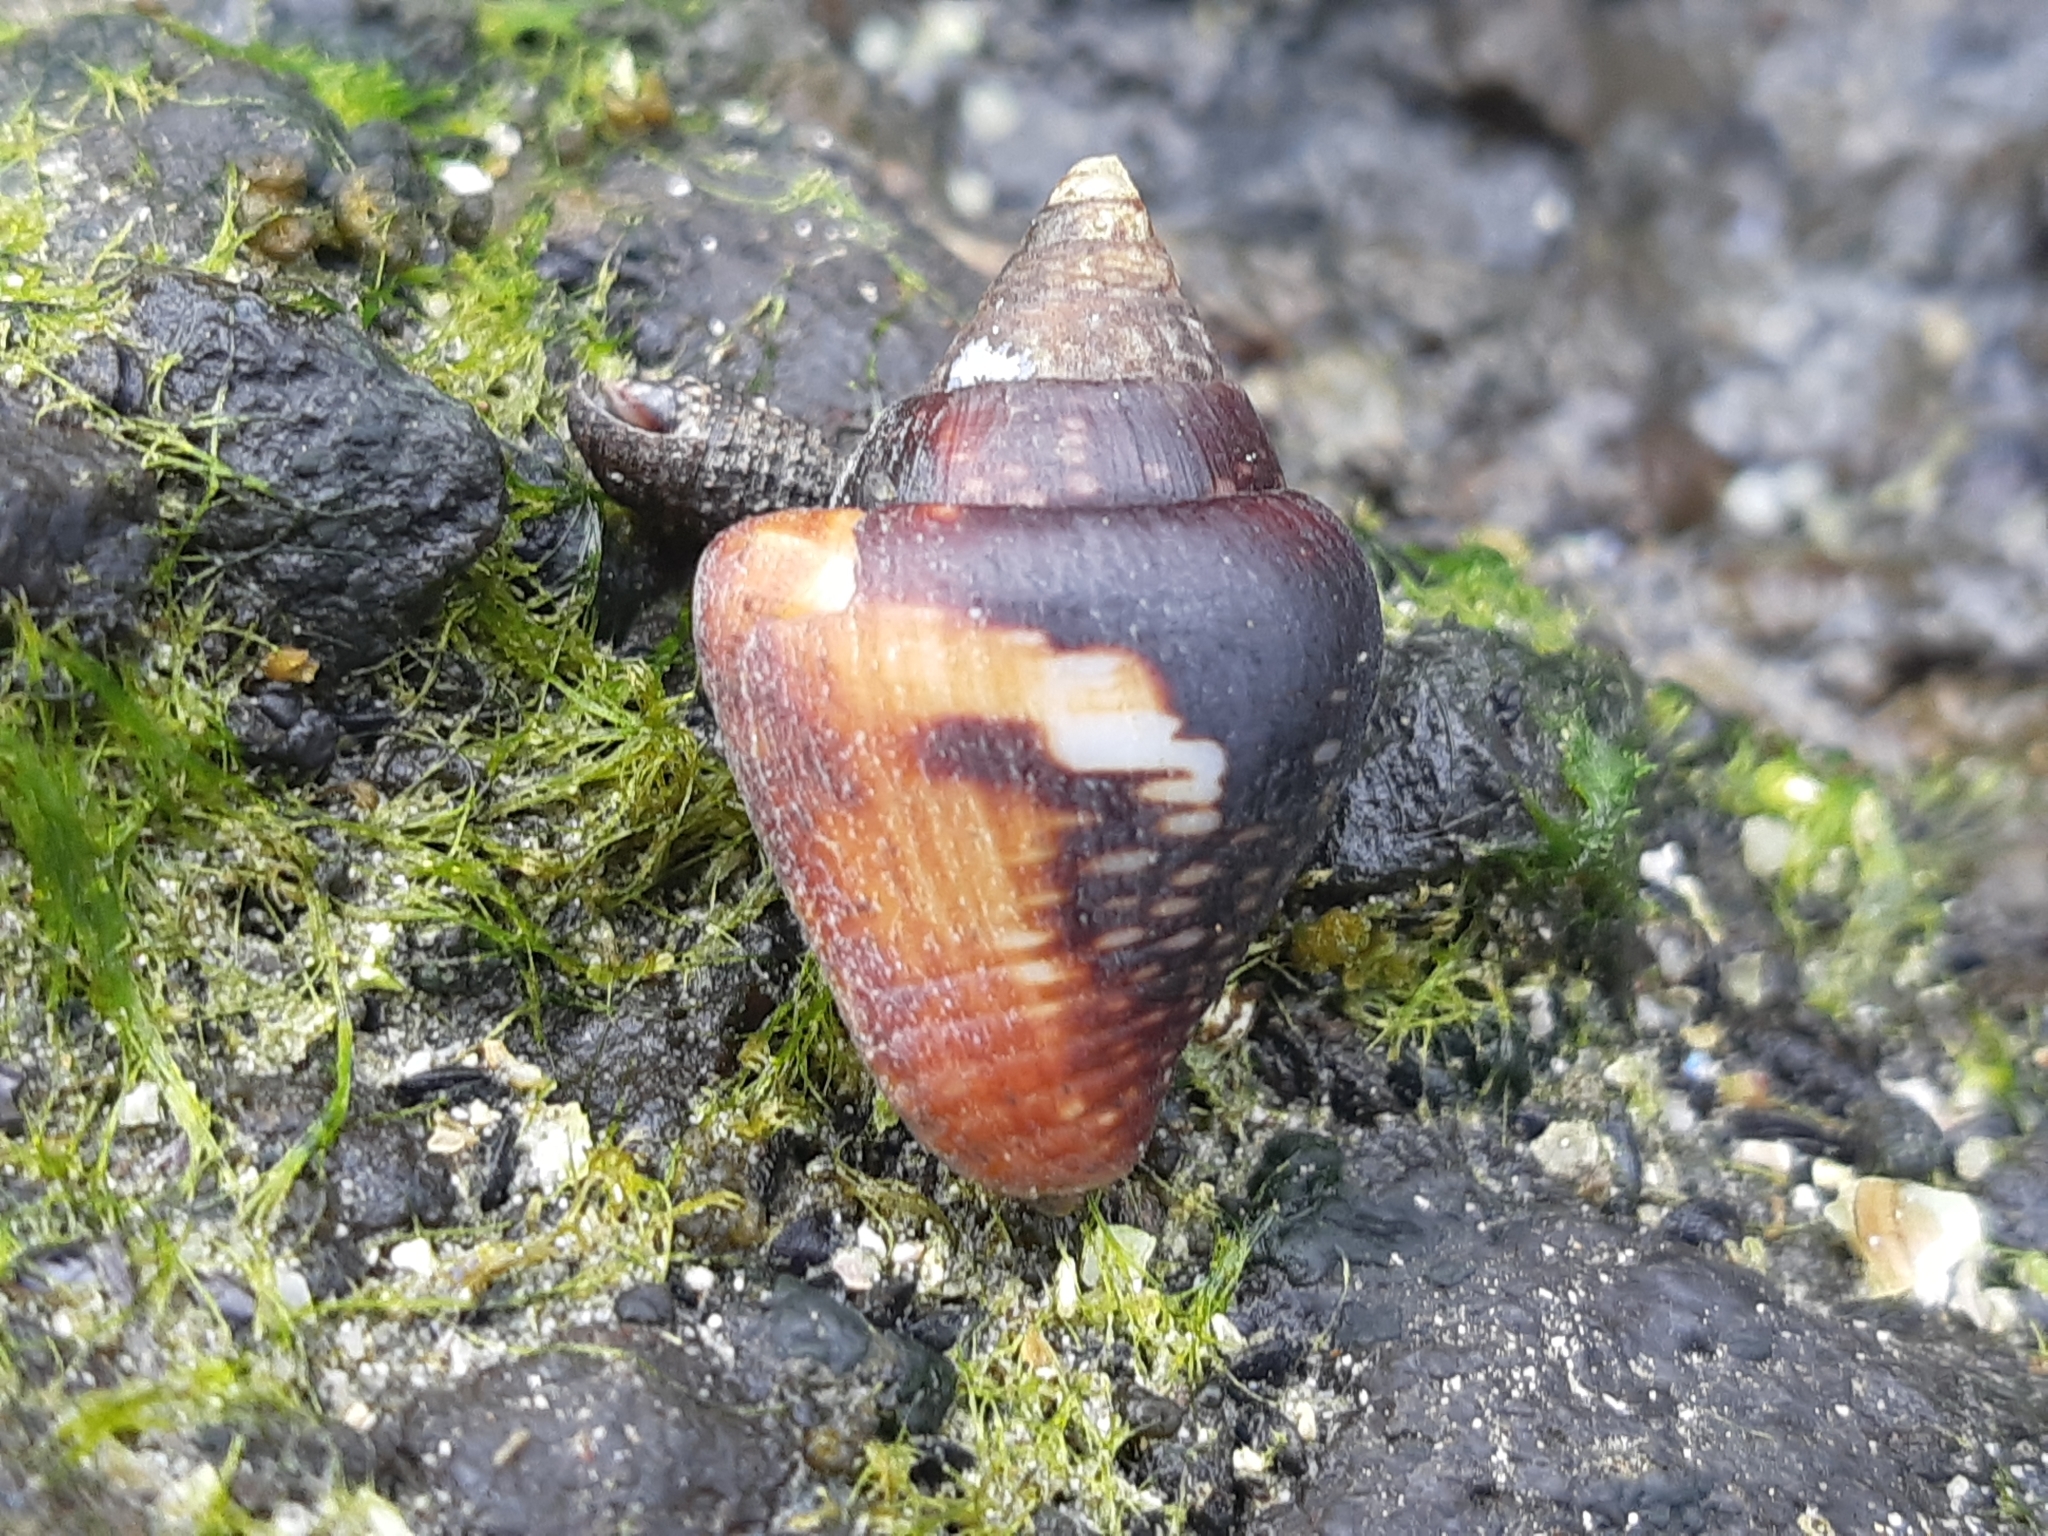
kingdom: Animalia
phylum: Mollusca
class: Gastropoda
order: Neogastropoda
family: Columbellidae
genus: Columbella
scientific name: Columbella major
